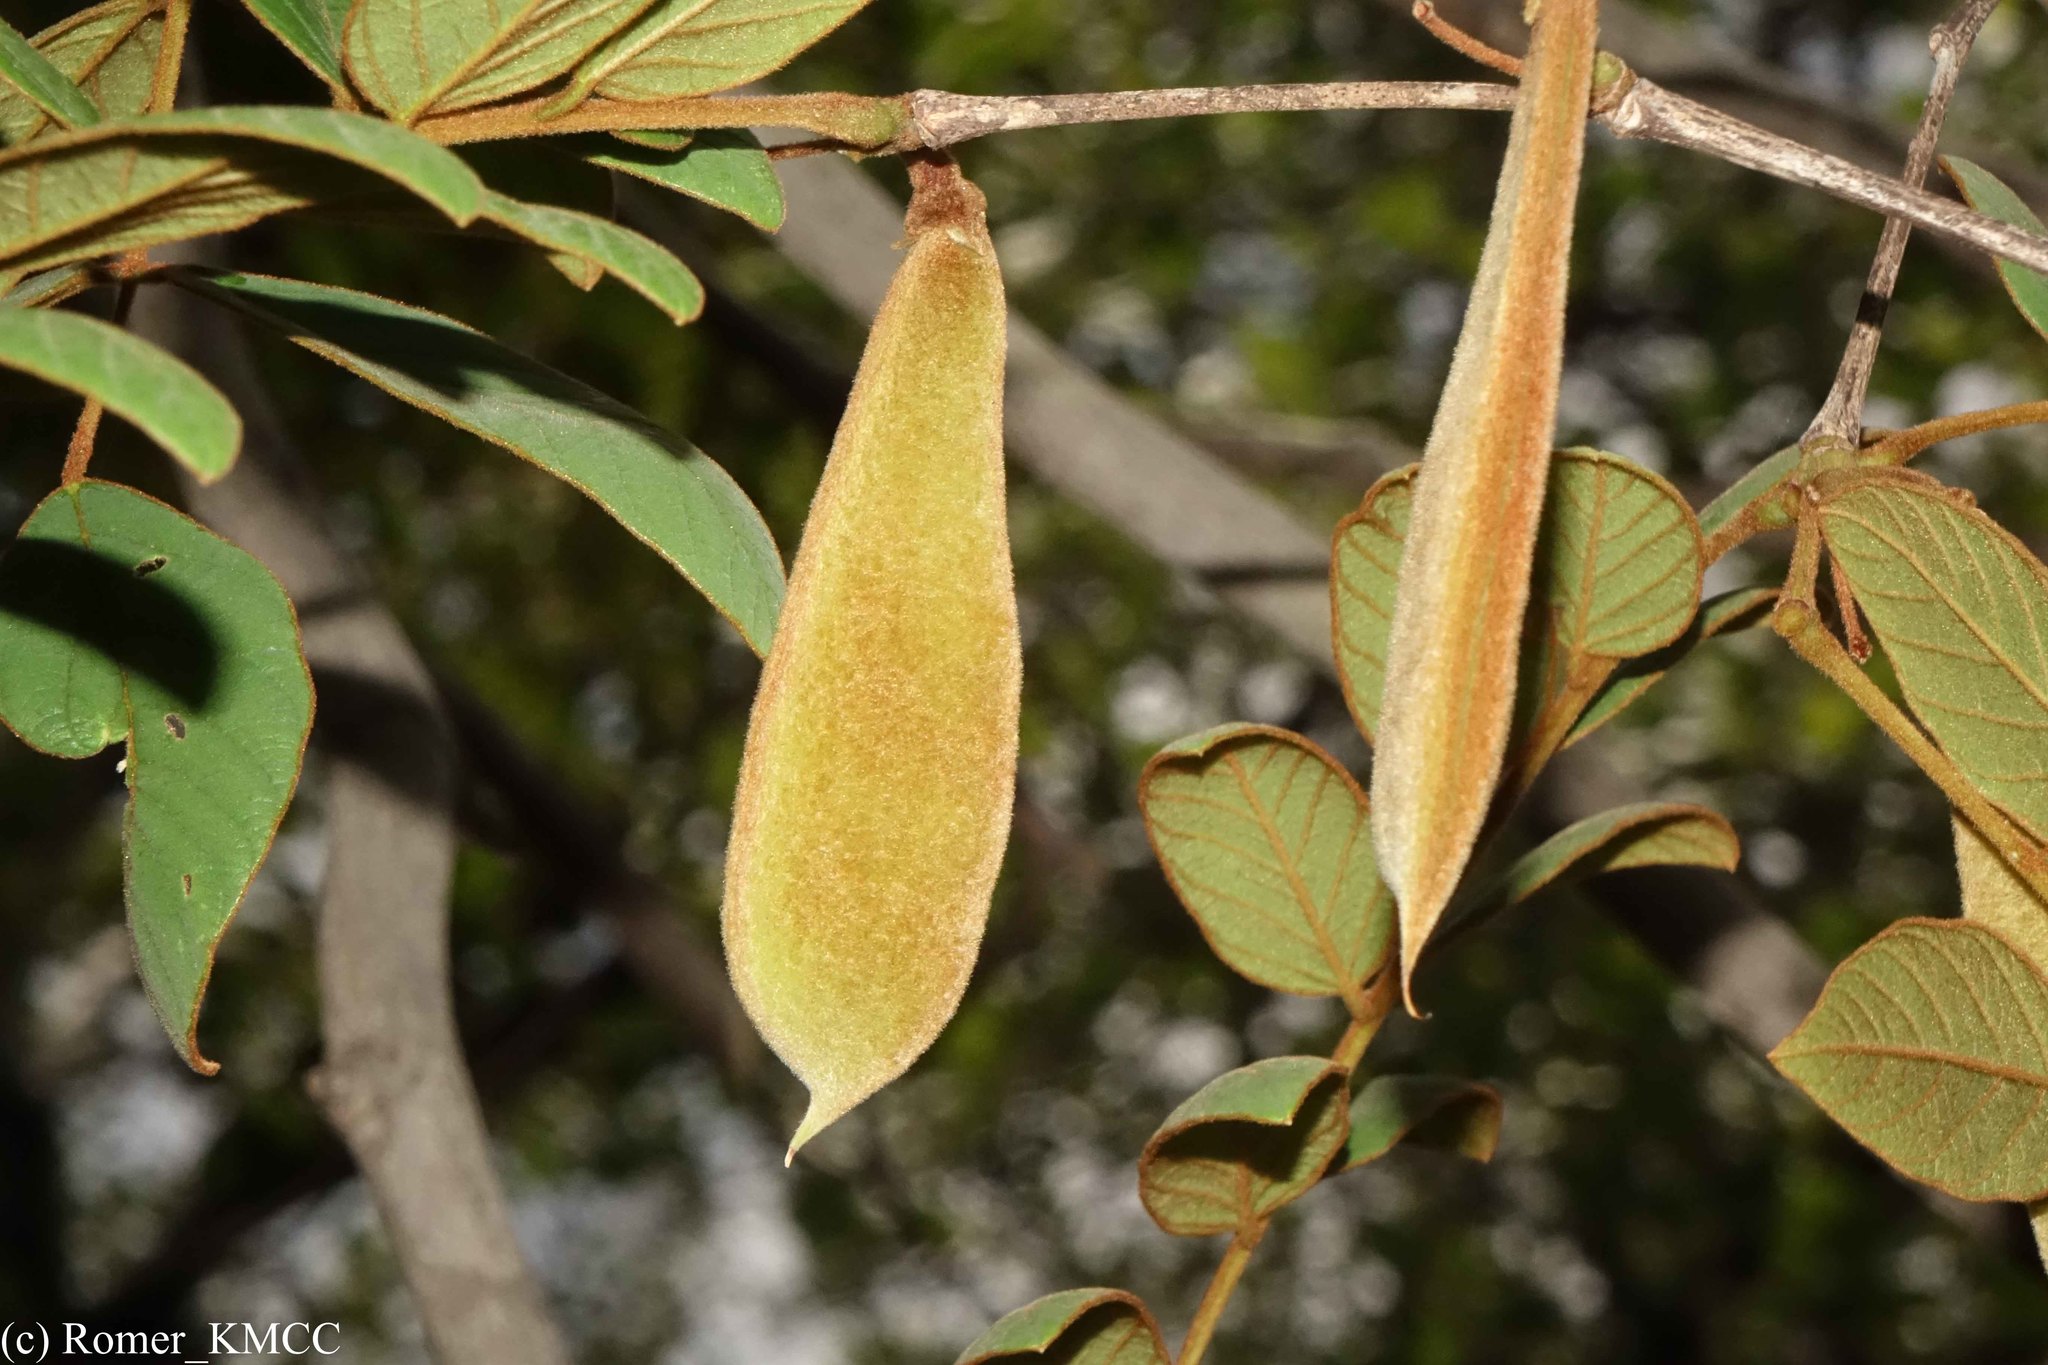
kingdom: Plantae
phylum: Tracheophyta
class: Magnoliopsida
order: Fabales
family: Fabaceae
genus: Millettia
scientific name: Millettia aurea
